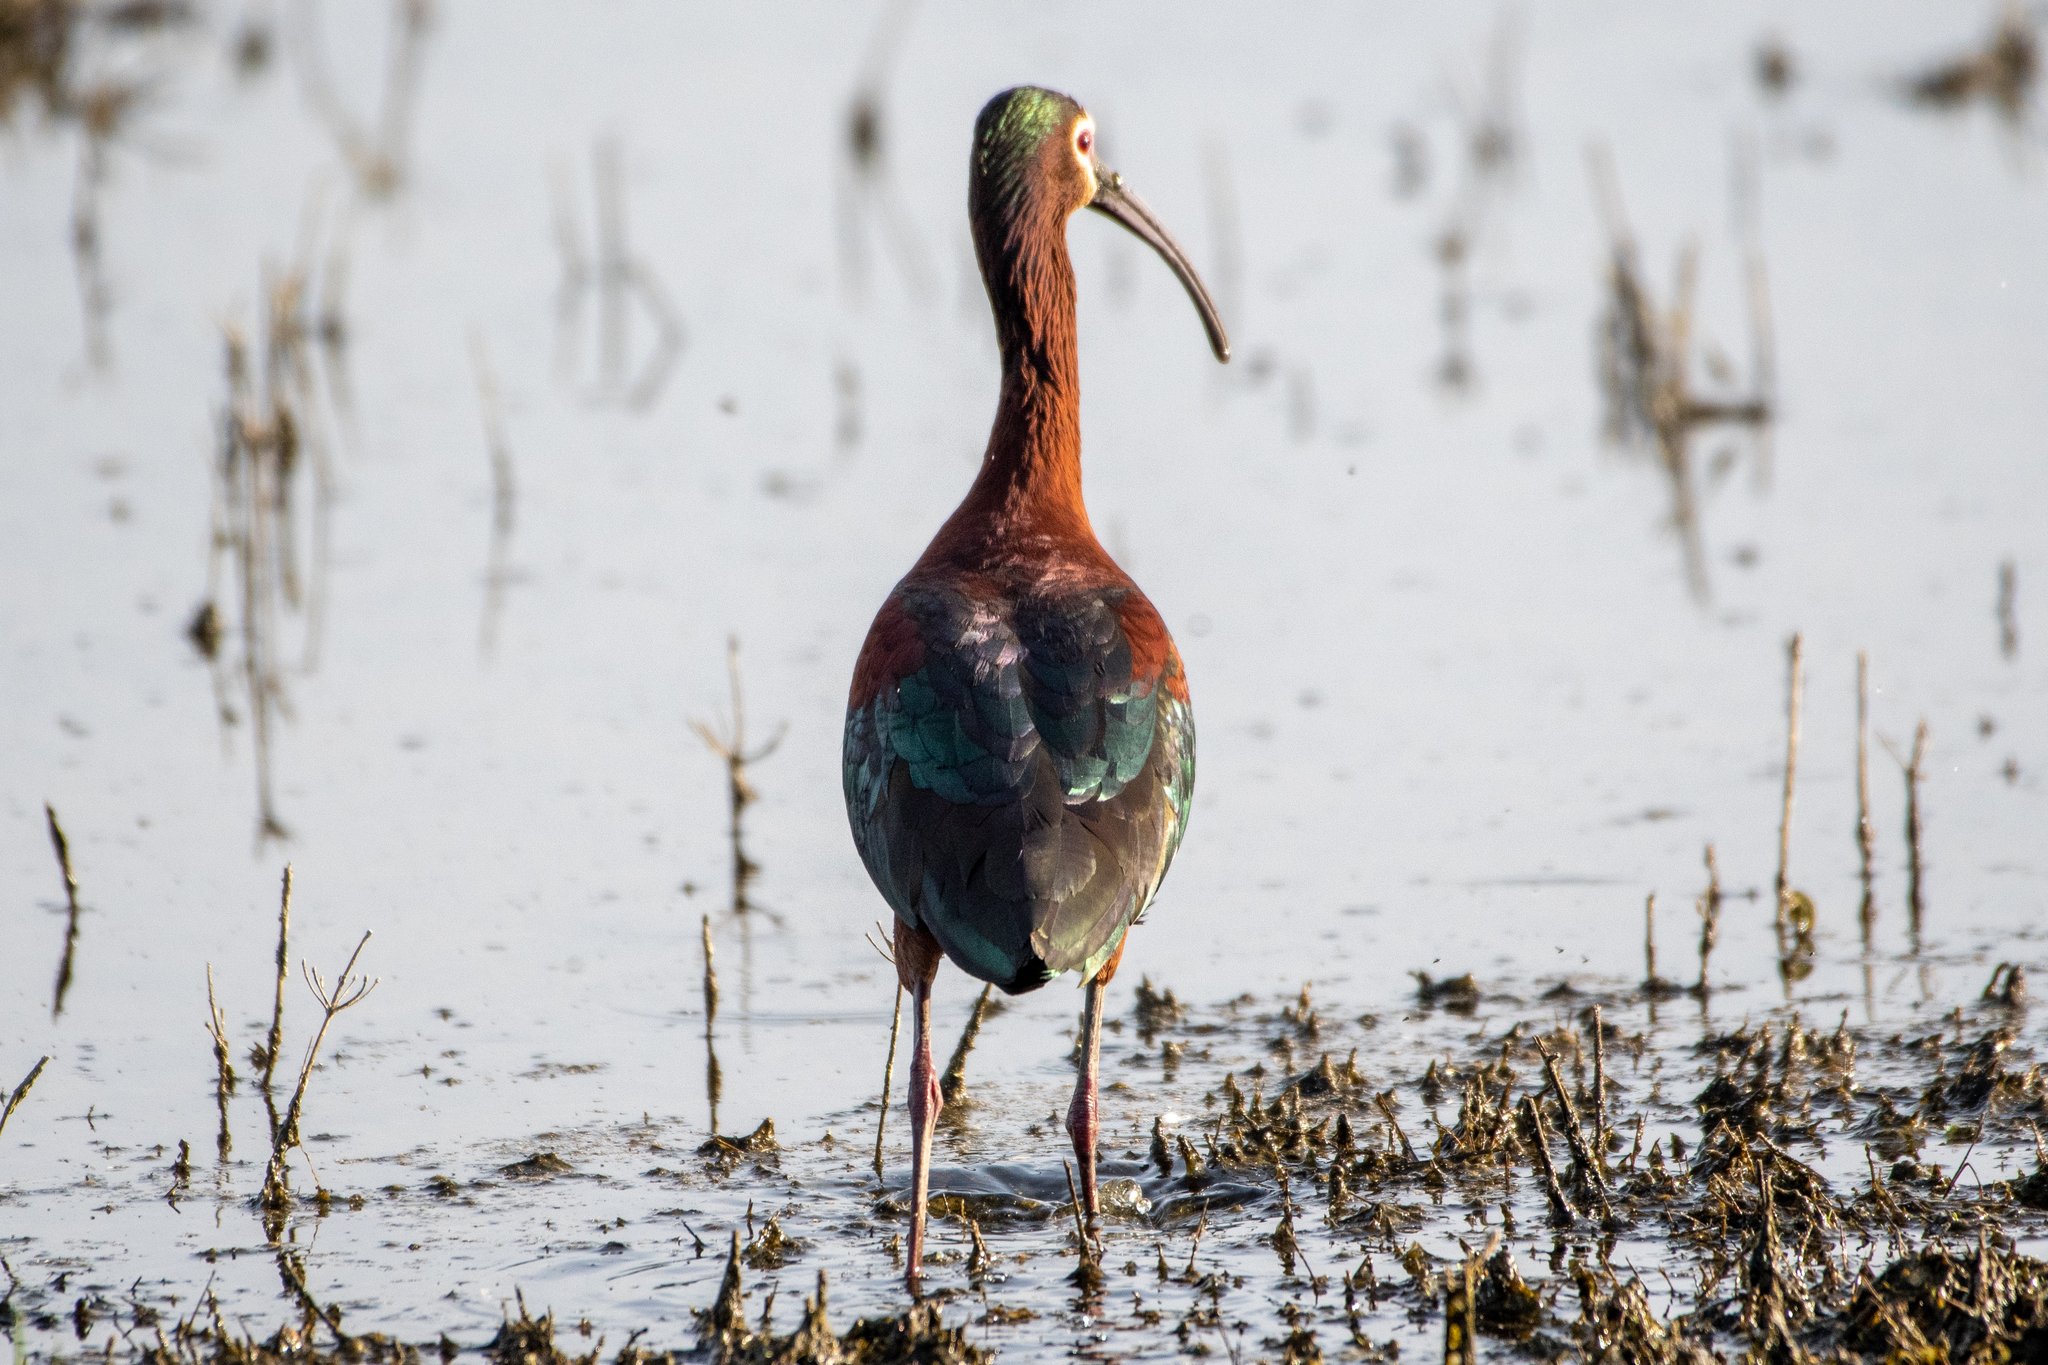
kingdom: Animalia
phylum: Chordata
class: Aves
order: Pelecaniformes
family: Threskiornithidae
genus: Plegadis
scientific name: Plegadis chihi
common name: White-faced ibis
